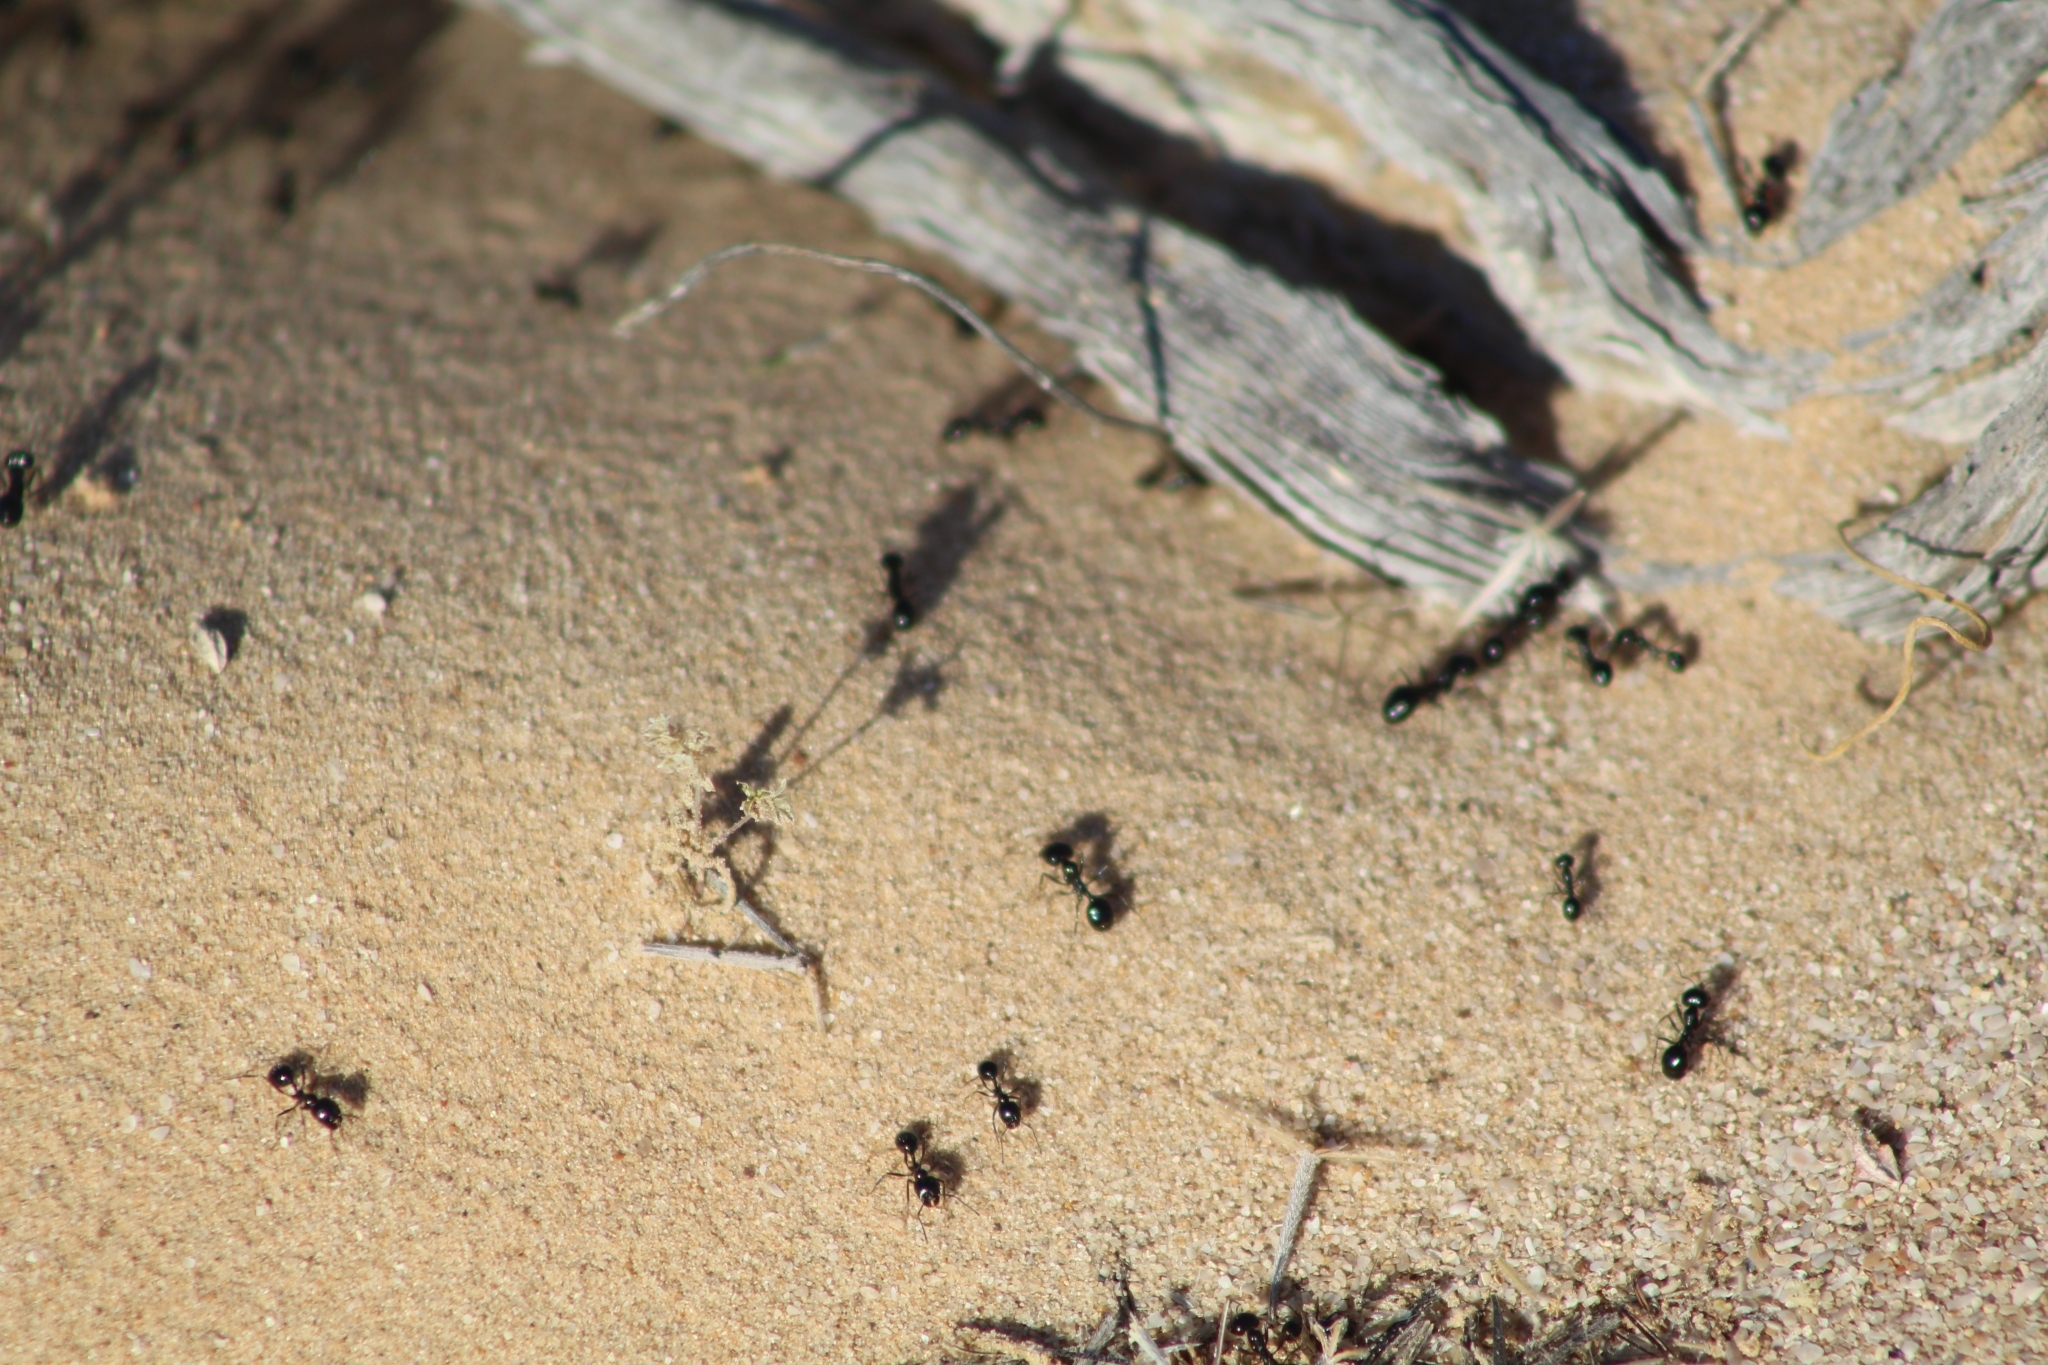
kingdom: Animalia
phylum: Arthropoda
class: Insecta
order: Hymenoptera
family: Formicidae
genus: Messor
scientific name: Messor pergandei
